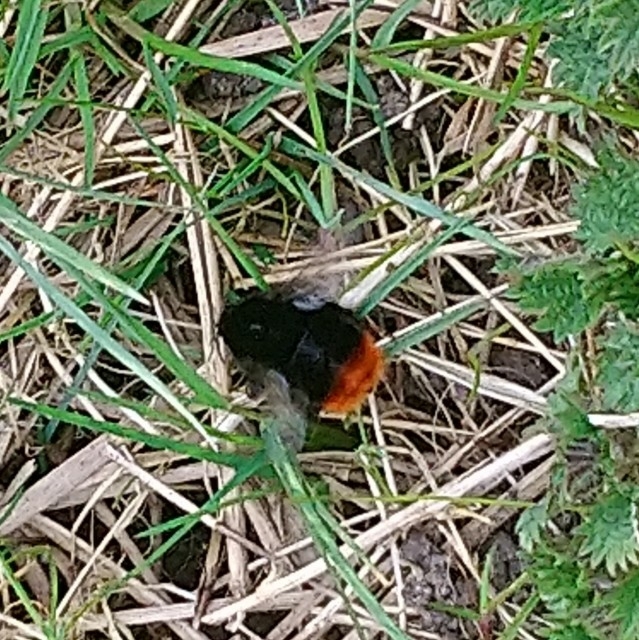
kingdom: Animalia
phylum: Arthropoda
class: Insecta
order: Hymenoptera
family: Apidae
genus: Bombus
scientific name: Bombus lapidarius
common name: Large red-tailed humble-bee
